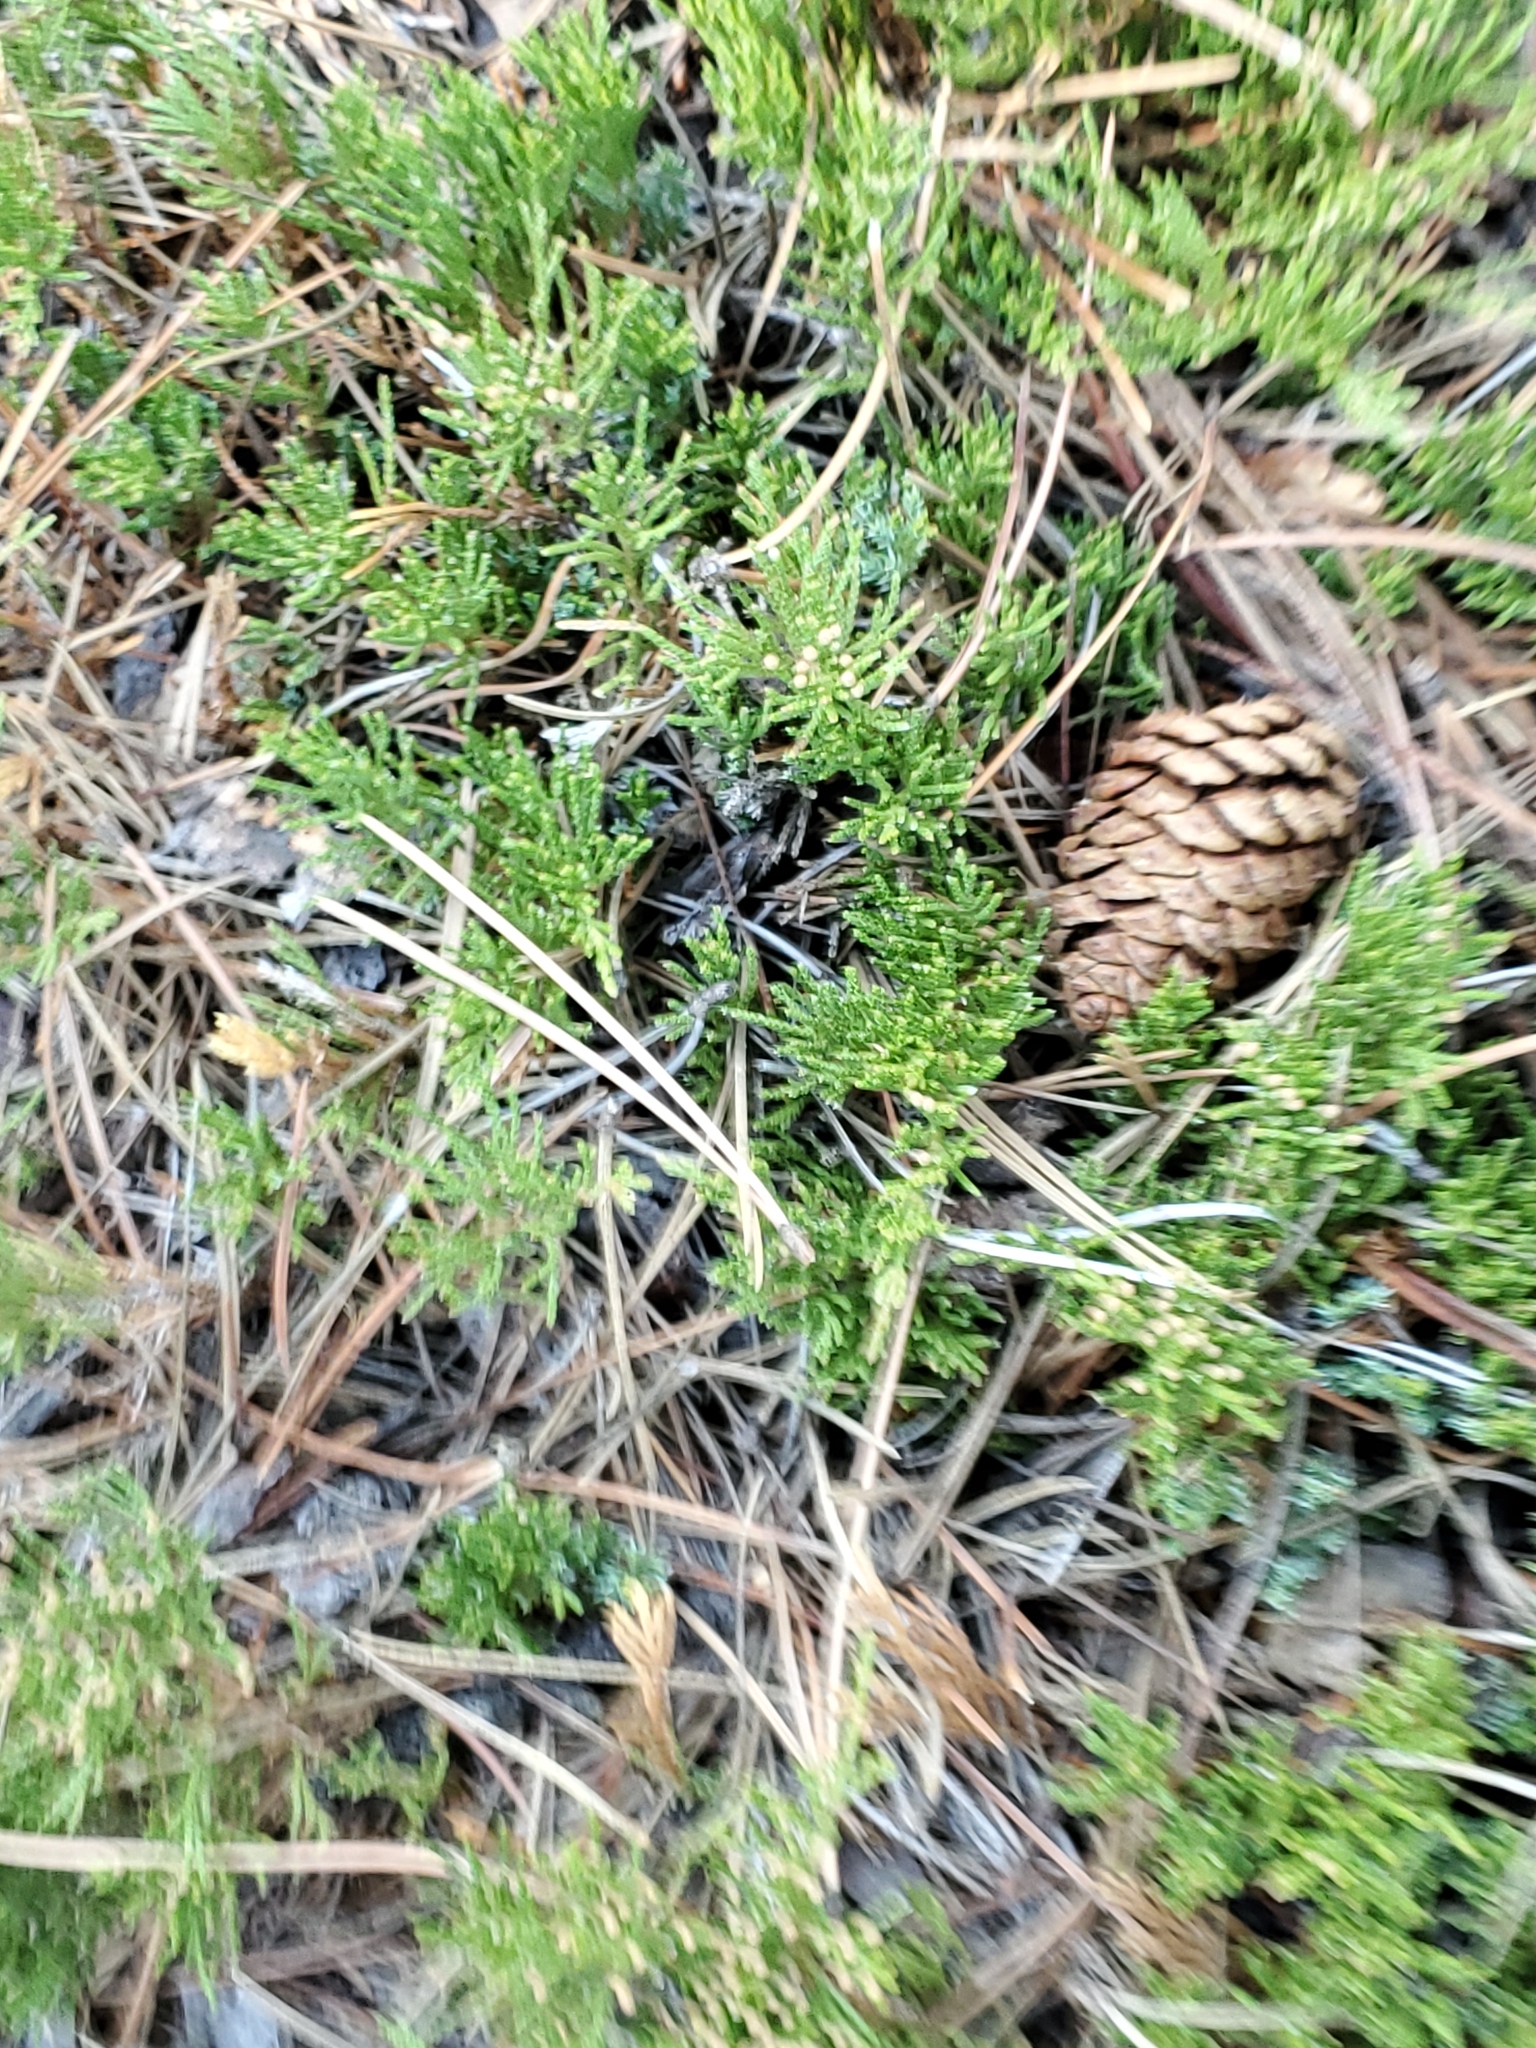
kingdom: Plantae
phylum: Tracheophyta
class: Pinopsida
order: Pinales
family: Cupressaceae
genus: Juniperus
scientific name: Juniperus horizontalis
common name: Creeping juniper
